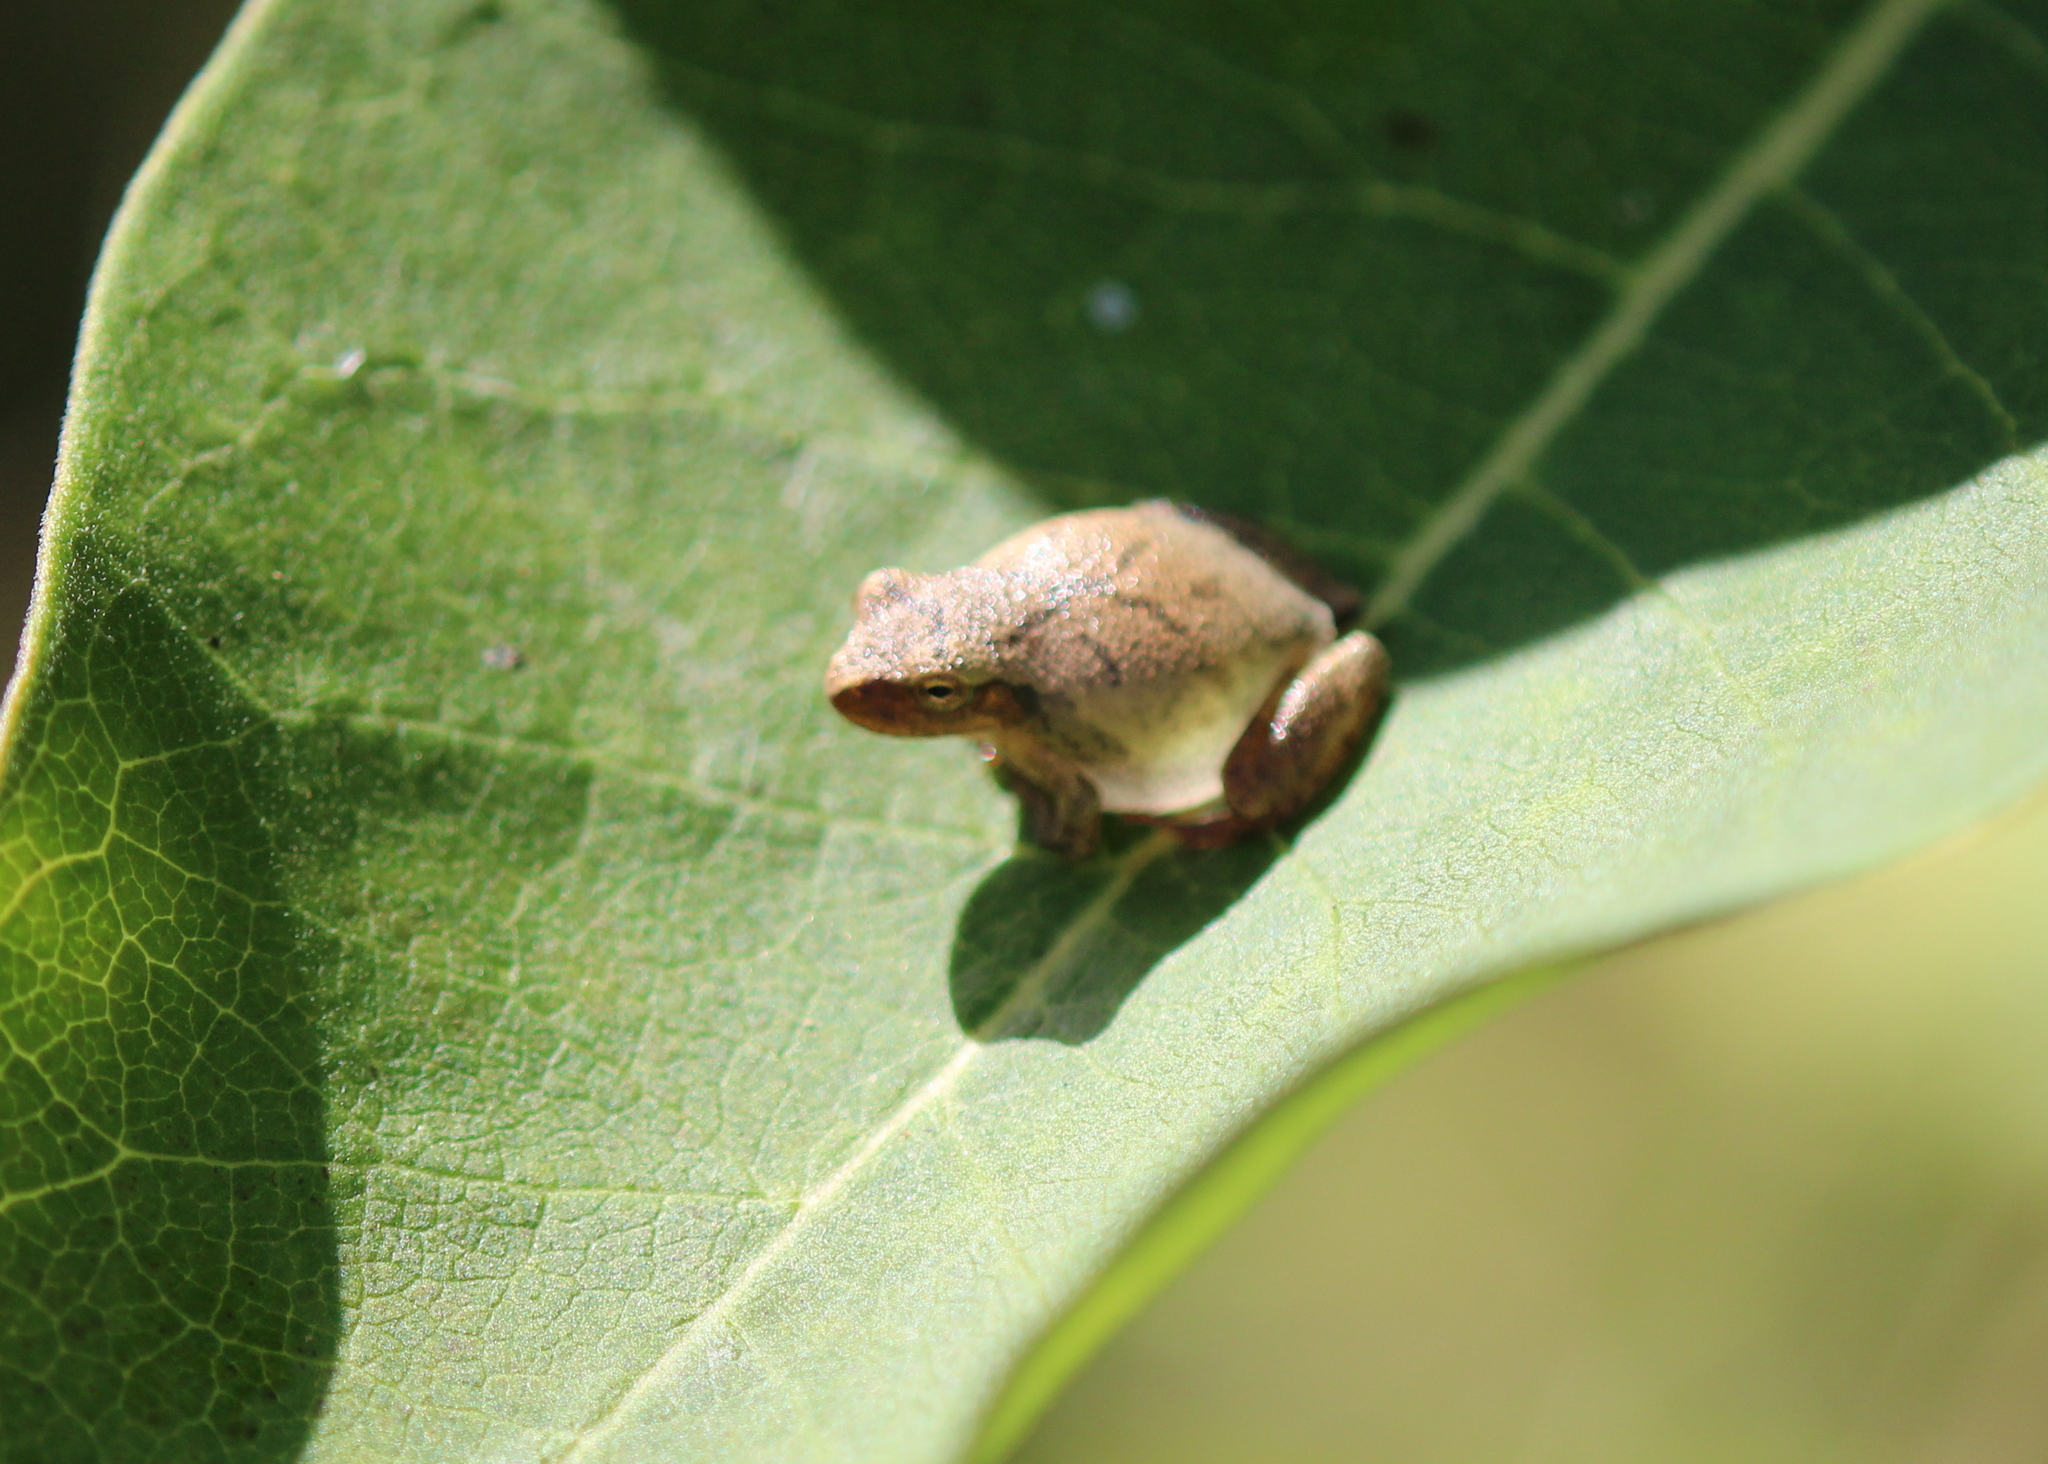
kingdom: Animalia
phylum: Chordata
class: Amphibia
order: Anura
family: Hylidae
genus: Pseudacris
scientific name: Pseudacris crucifer
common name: Spring peeper
